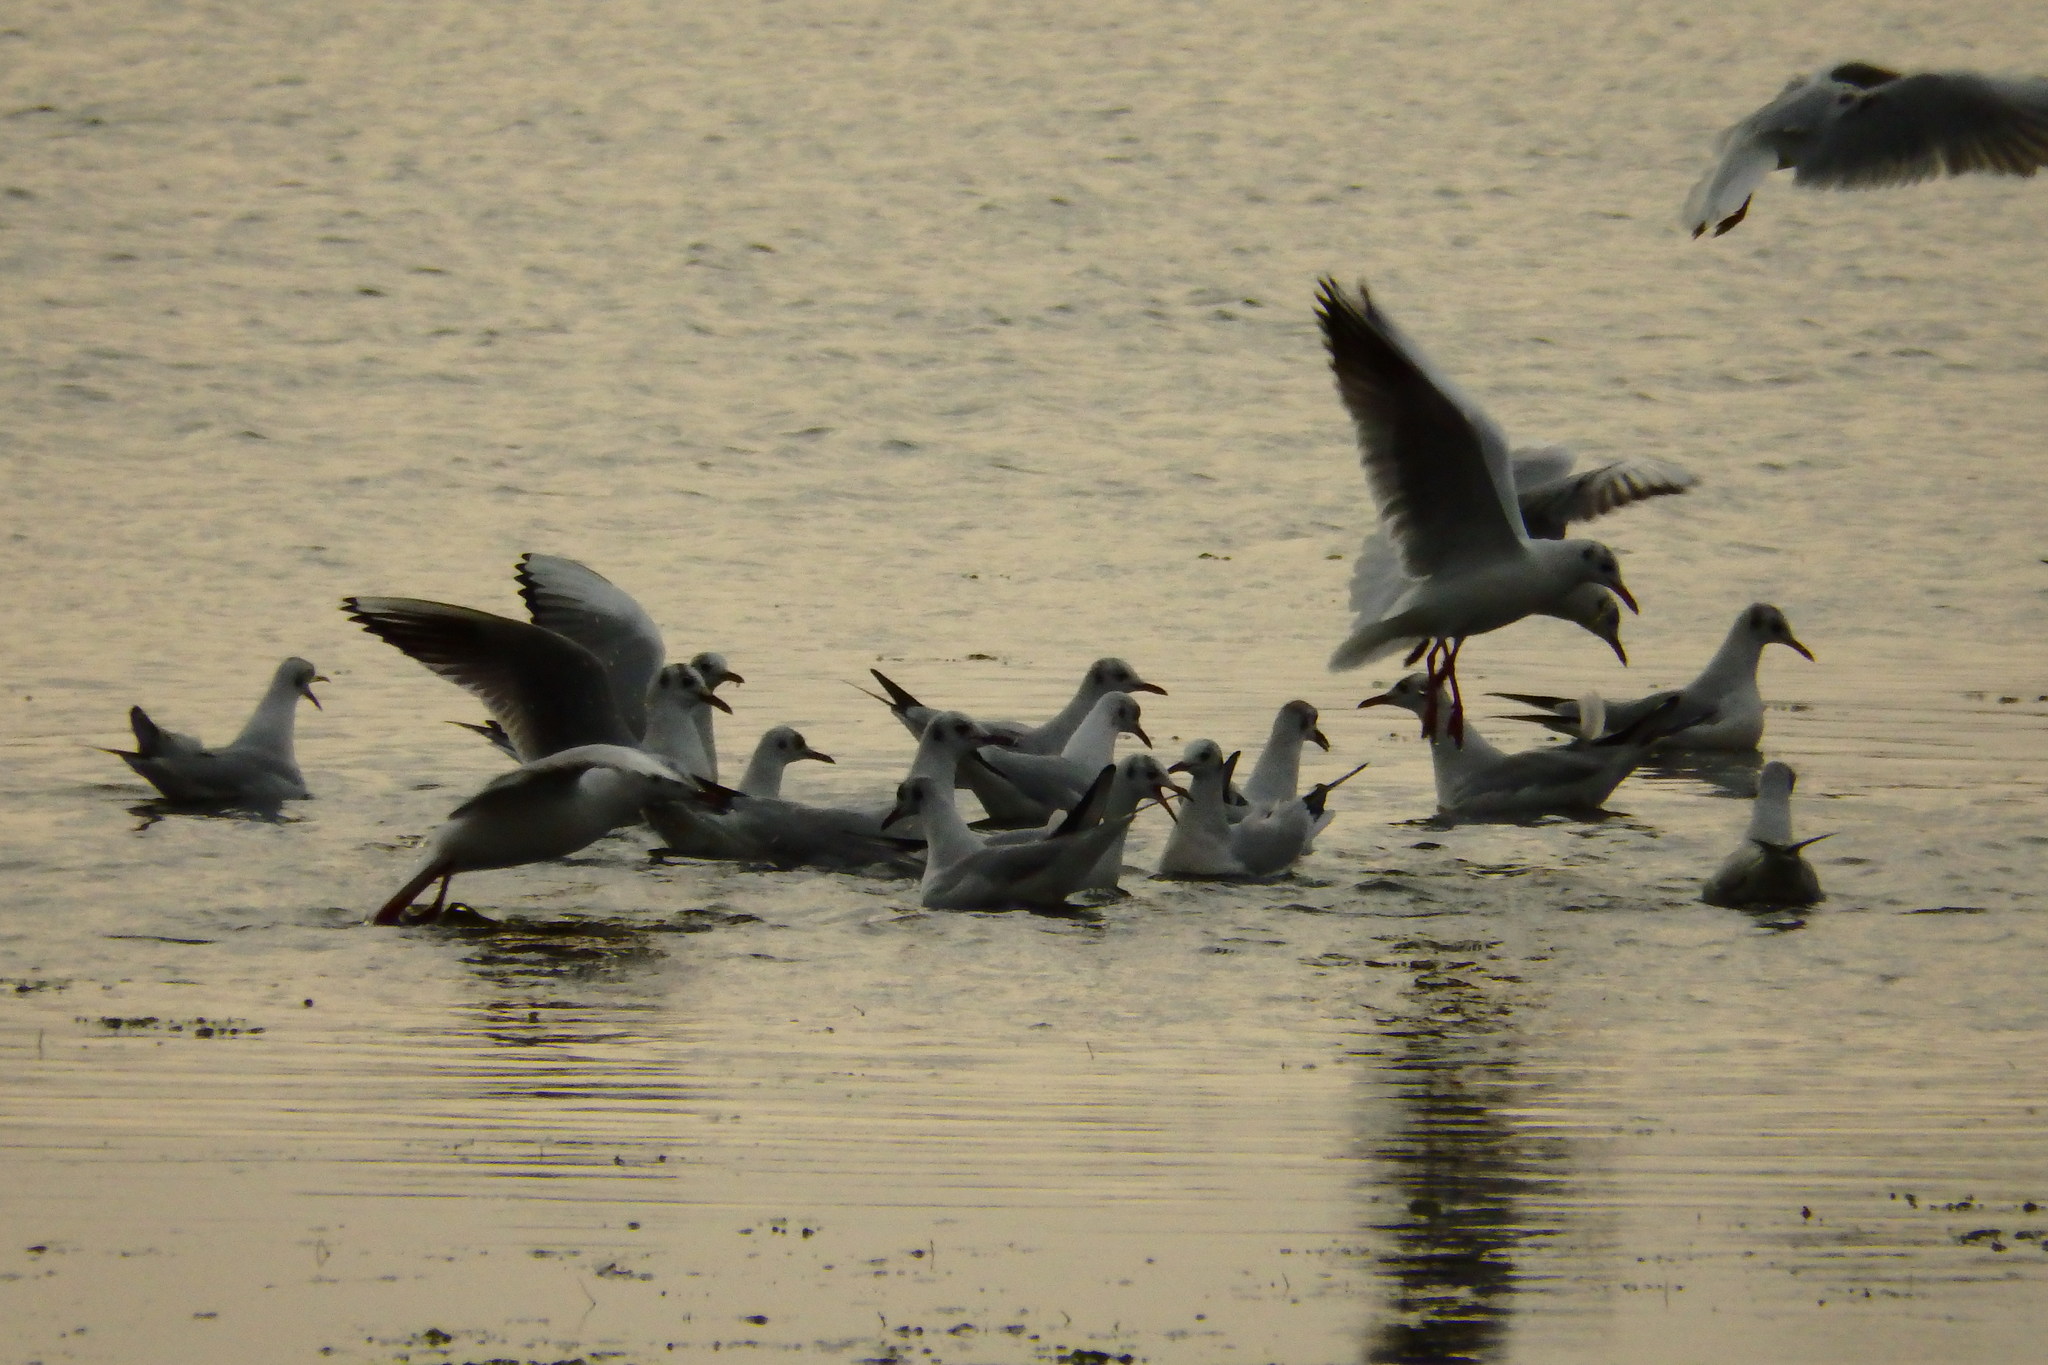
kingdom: Animalia
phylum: Chordata
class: Aves
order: Charadriiformes
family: Laridae
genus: Chroicocephalus
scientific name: Chroicocephalus ridibundus
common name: Black-headed gull
